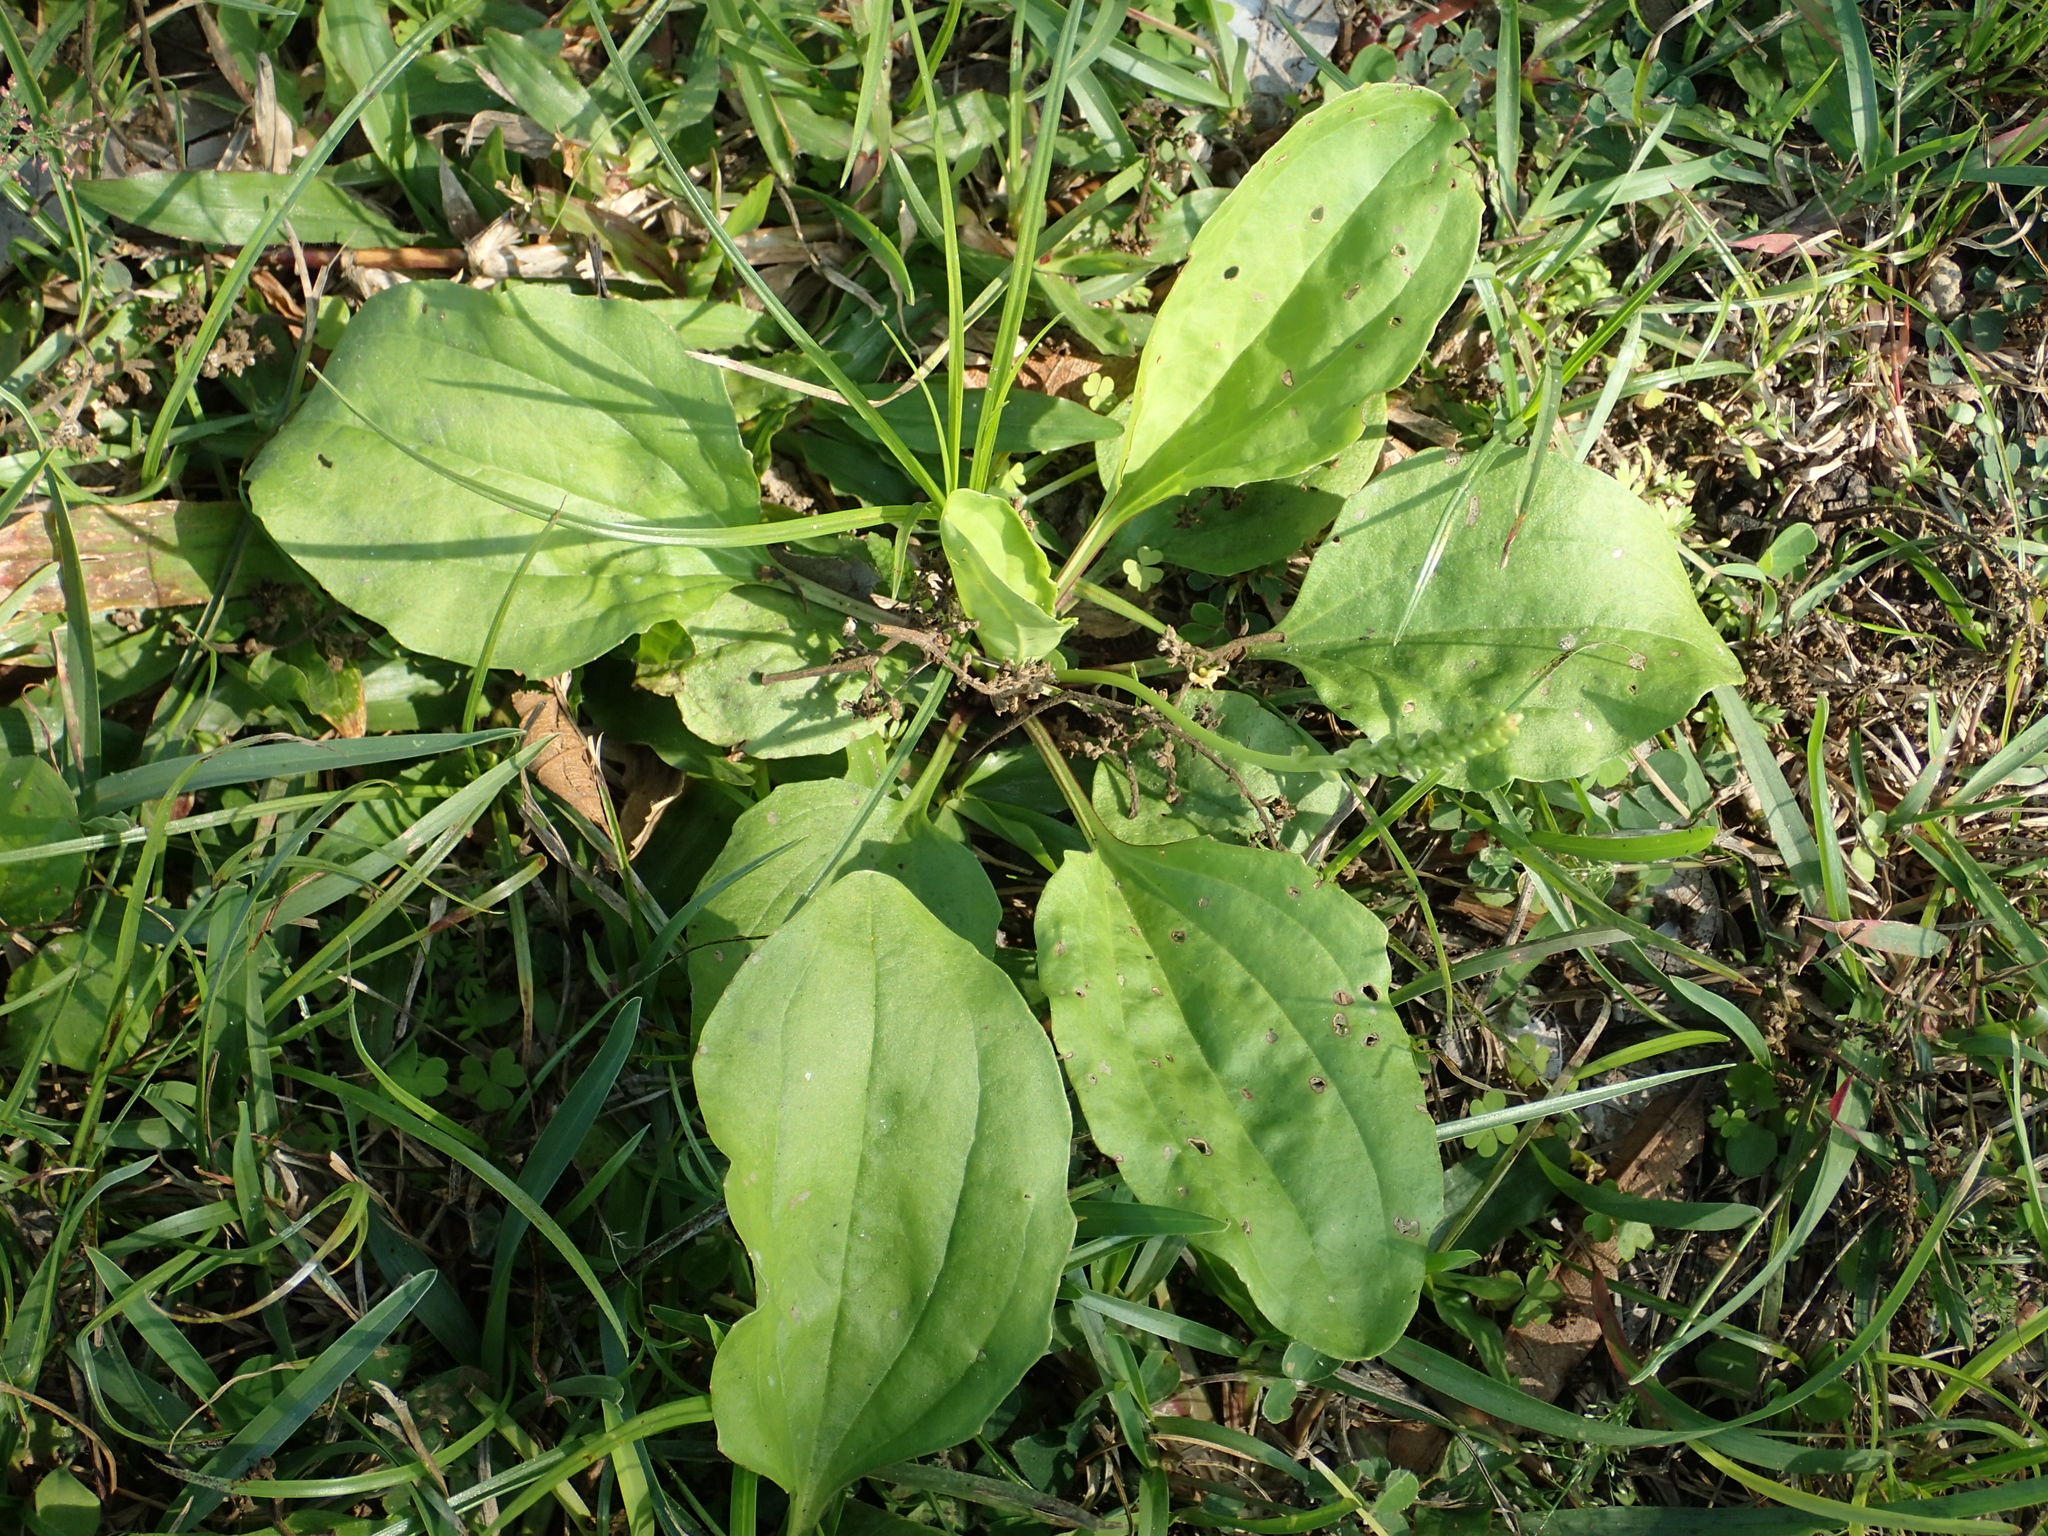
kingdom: Plantae
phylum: Tracheophyta
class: Magnoliopsida
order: Lamiales
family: Plantaginaceae
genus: Plantago
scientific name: Plantago asiatica
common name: Psyllium
